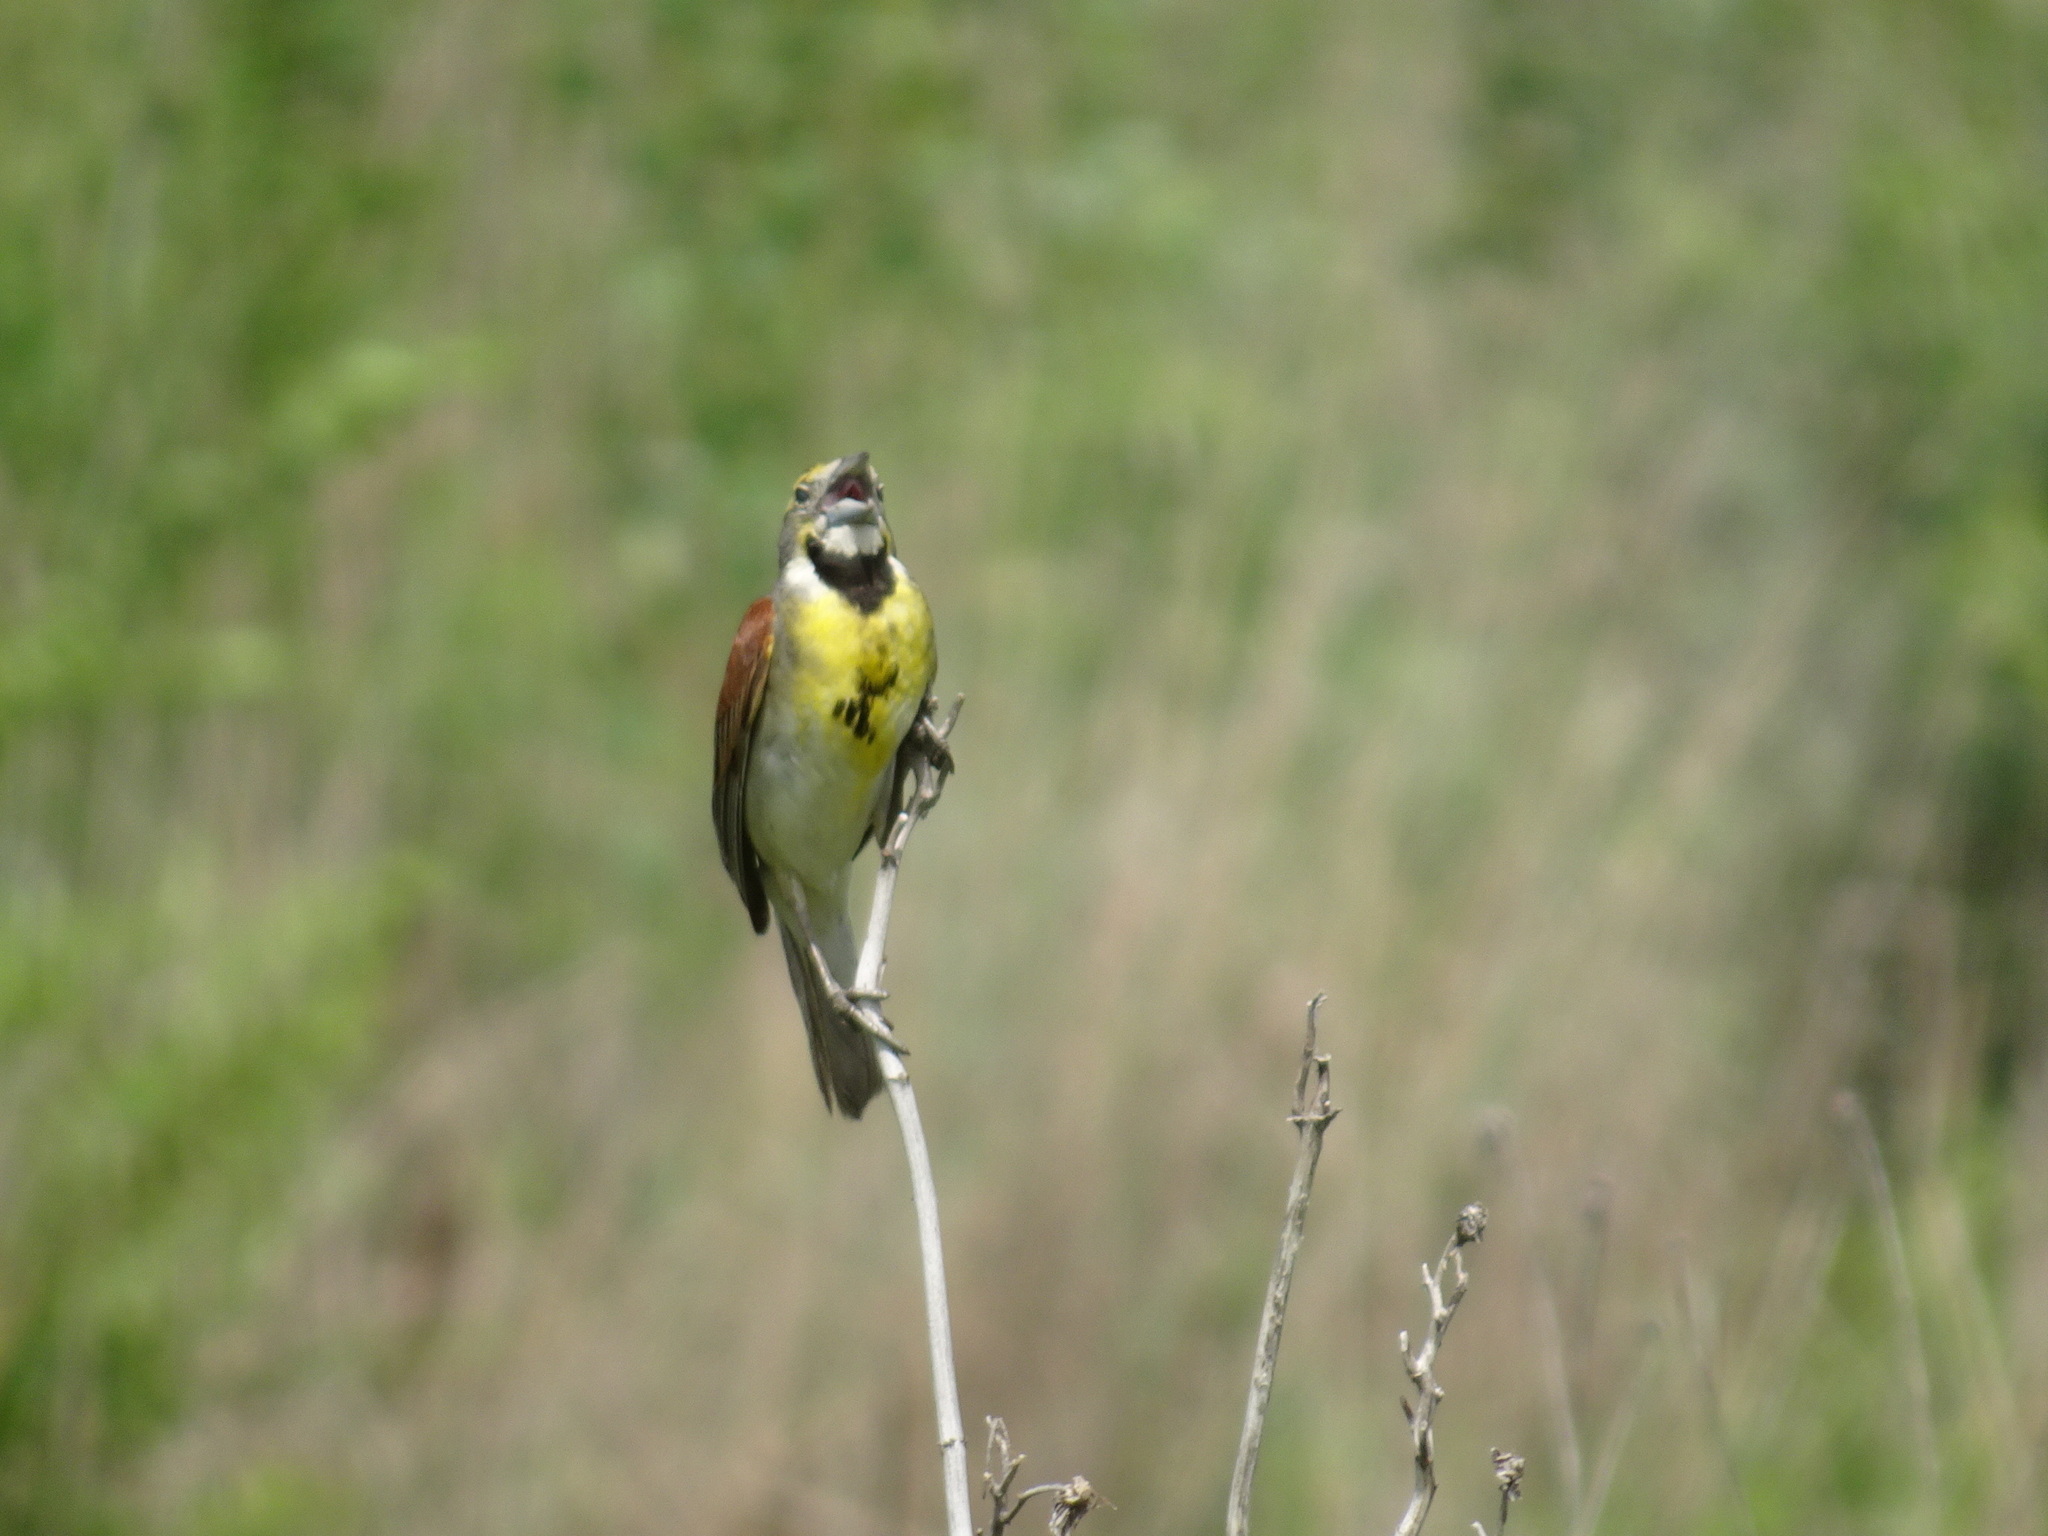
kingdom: Animalia
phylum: Chordata
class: Aves
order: Passeriformes
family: Cardinalidae
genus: Spiza
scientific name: Spiza americana
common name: Dickcissel
